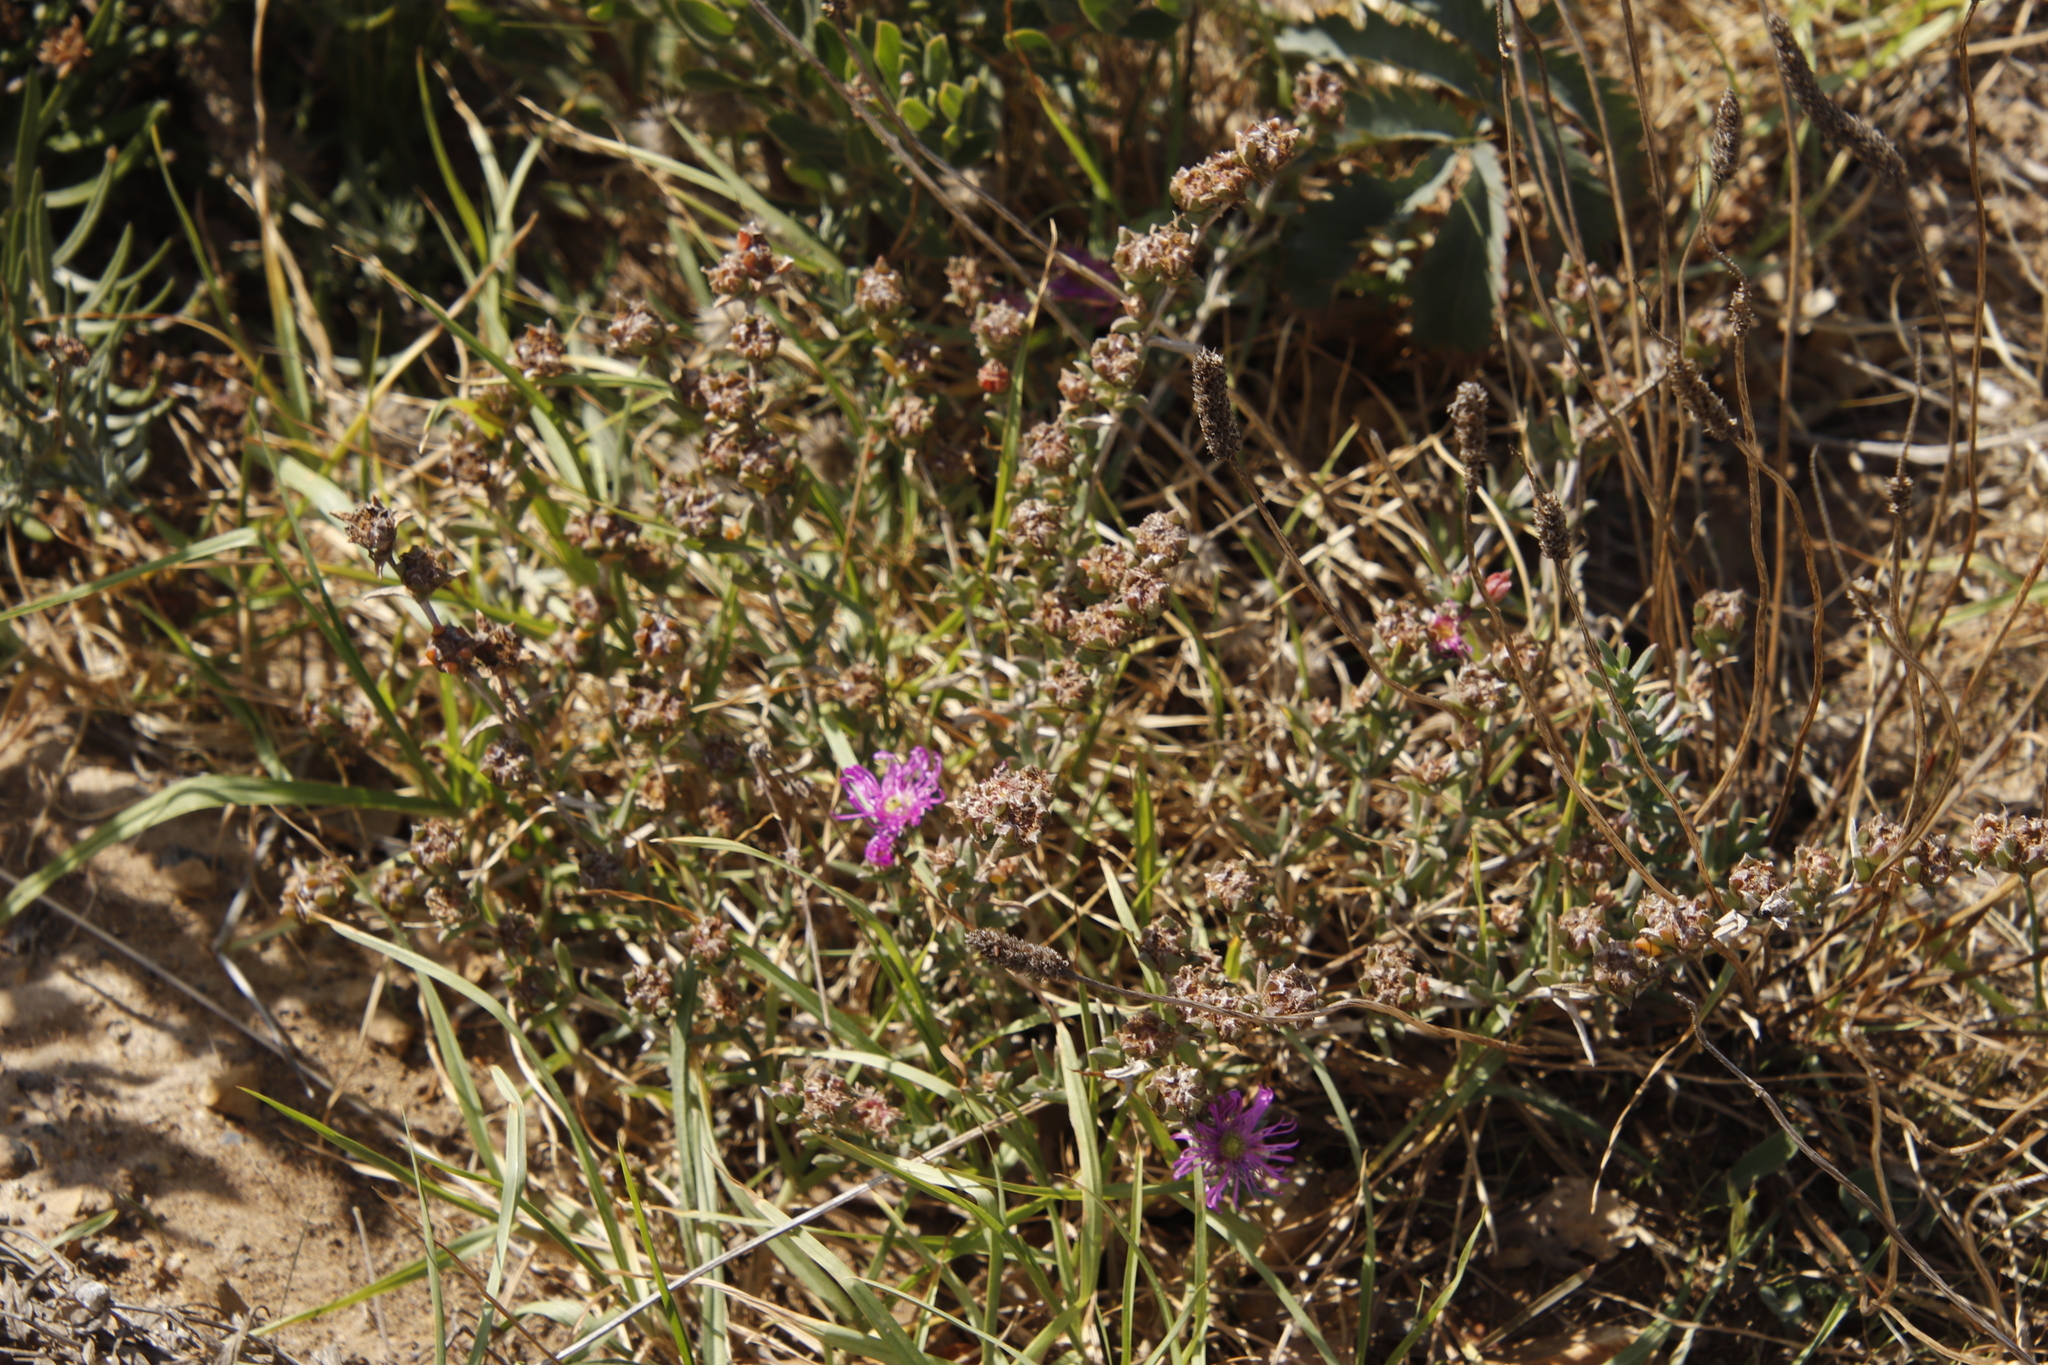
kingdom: Plantae
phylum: Tracheophyta
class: Magnoliopsida
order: Caryophyllales
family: Aizoaceae
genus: Erepsia
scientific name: Erepsia bracteata
